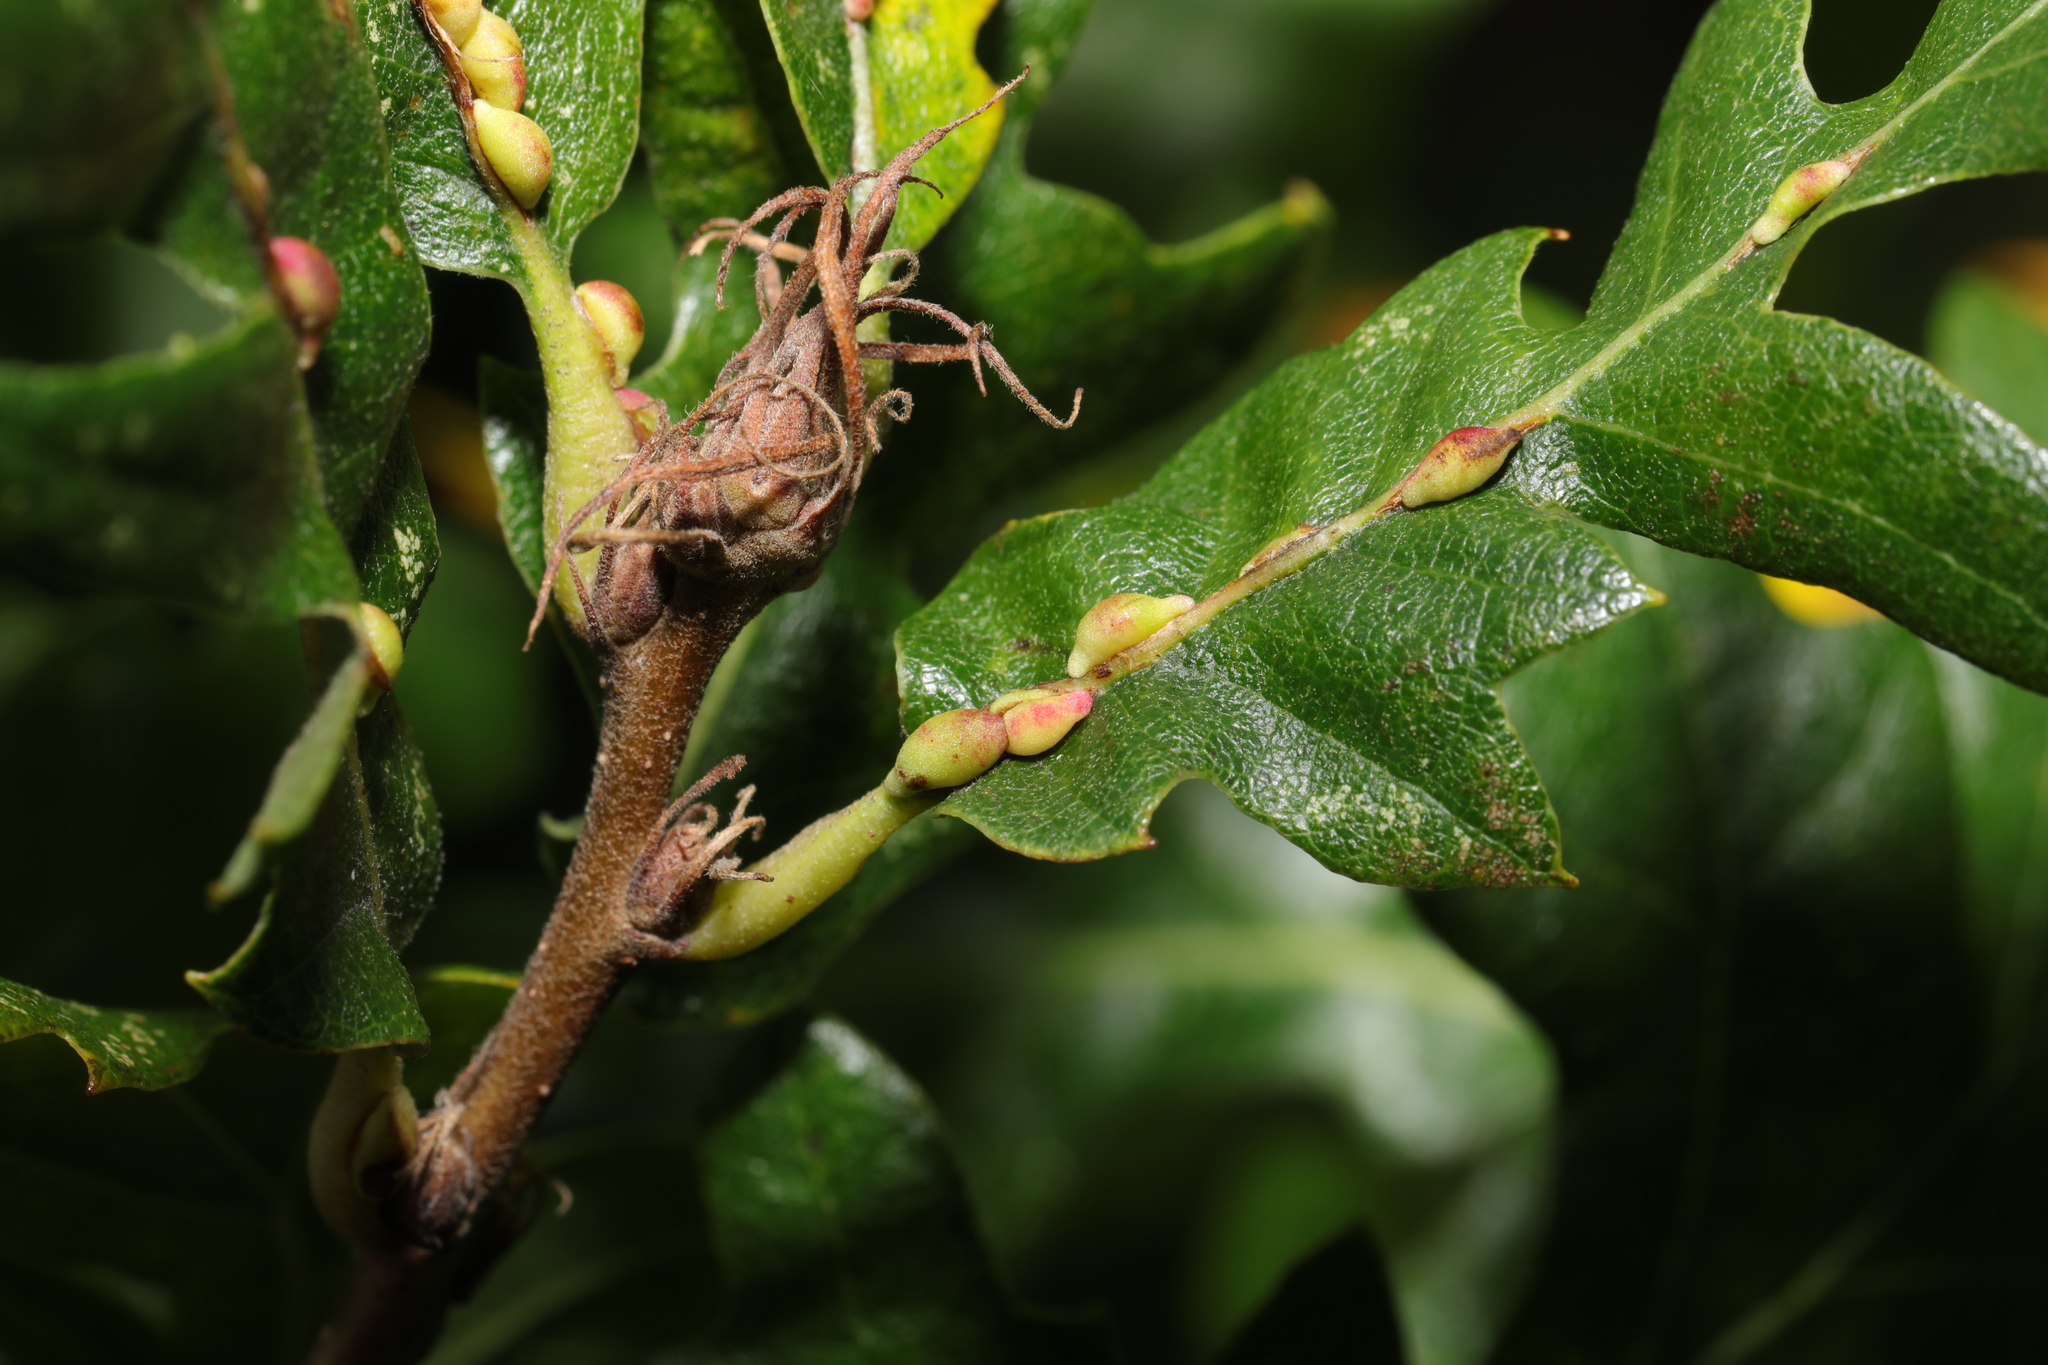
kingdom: Animalia
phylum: Arthropoda
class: Insecta
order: Hymenoptera
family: Cynipidae
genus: Neuroterus
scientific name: Neuroterus saliens
